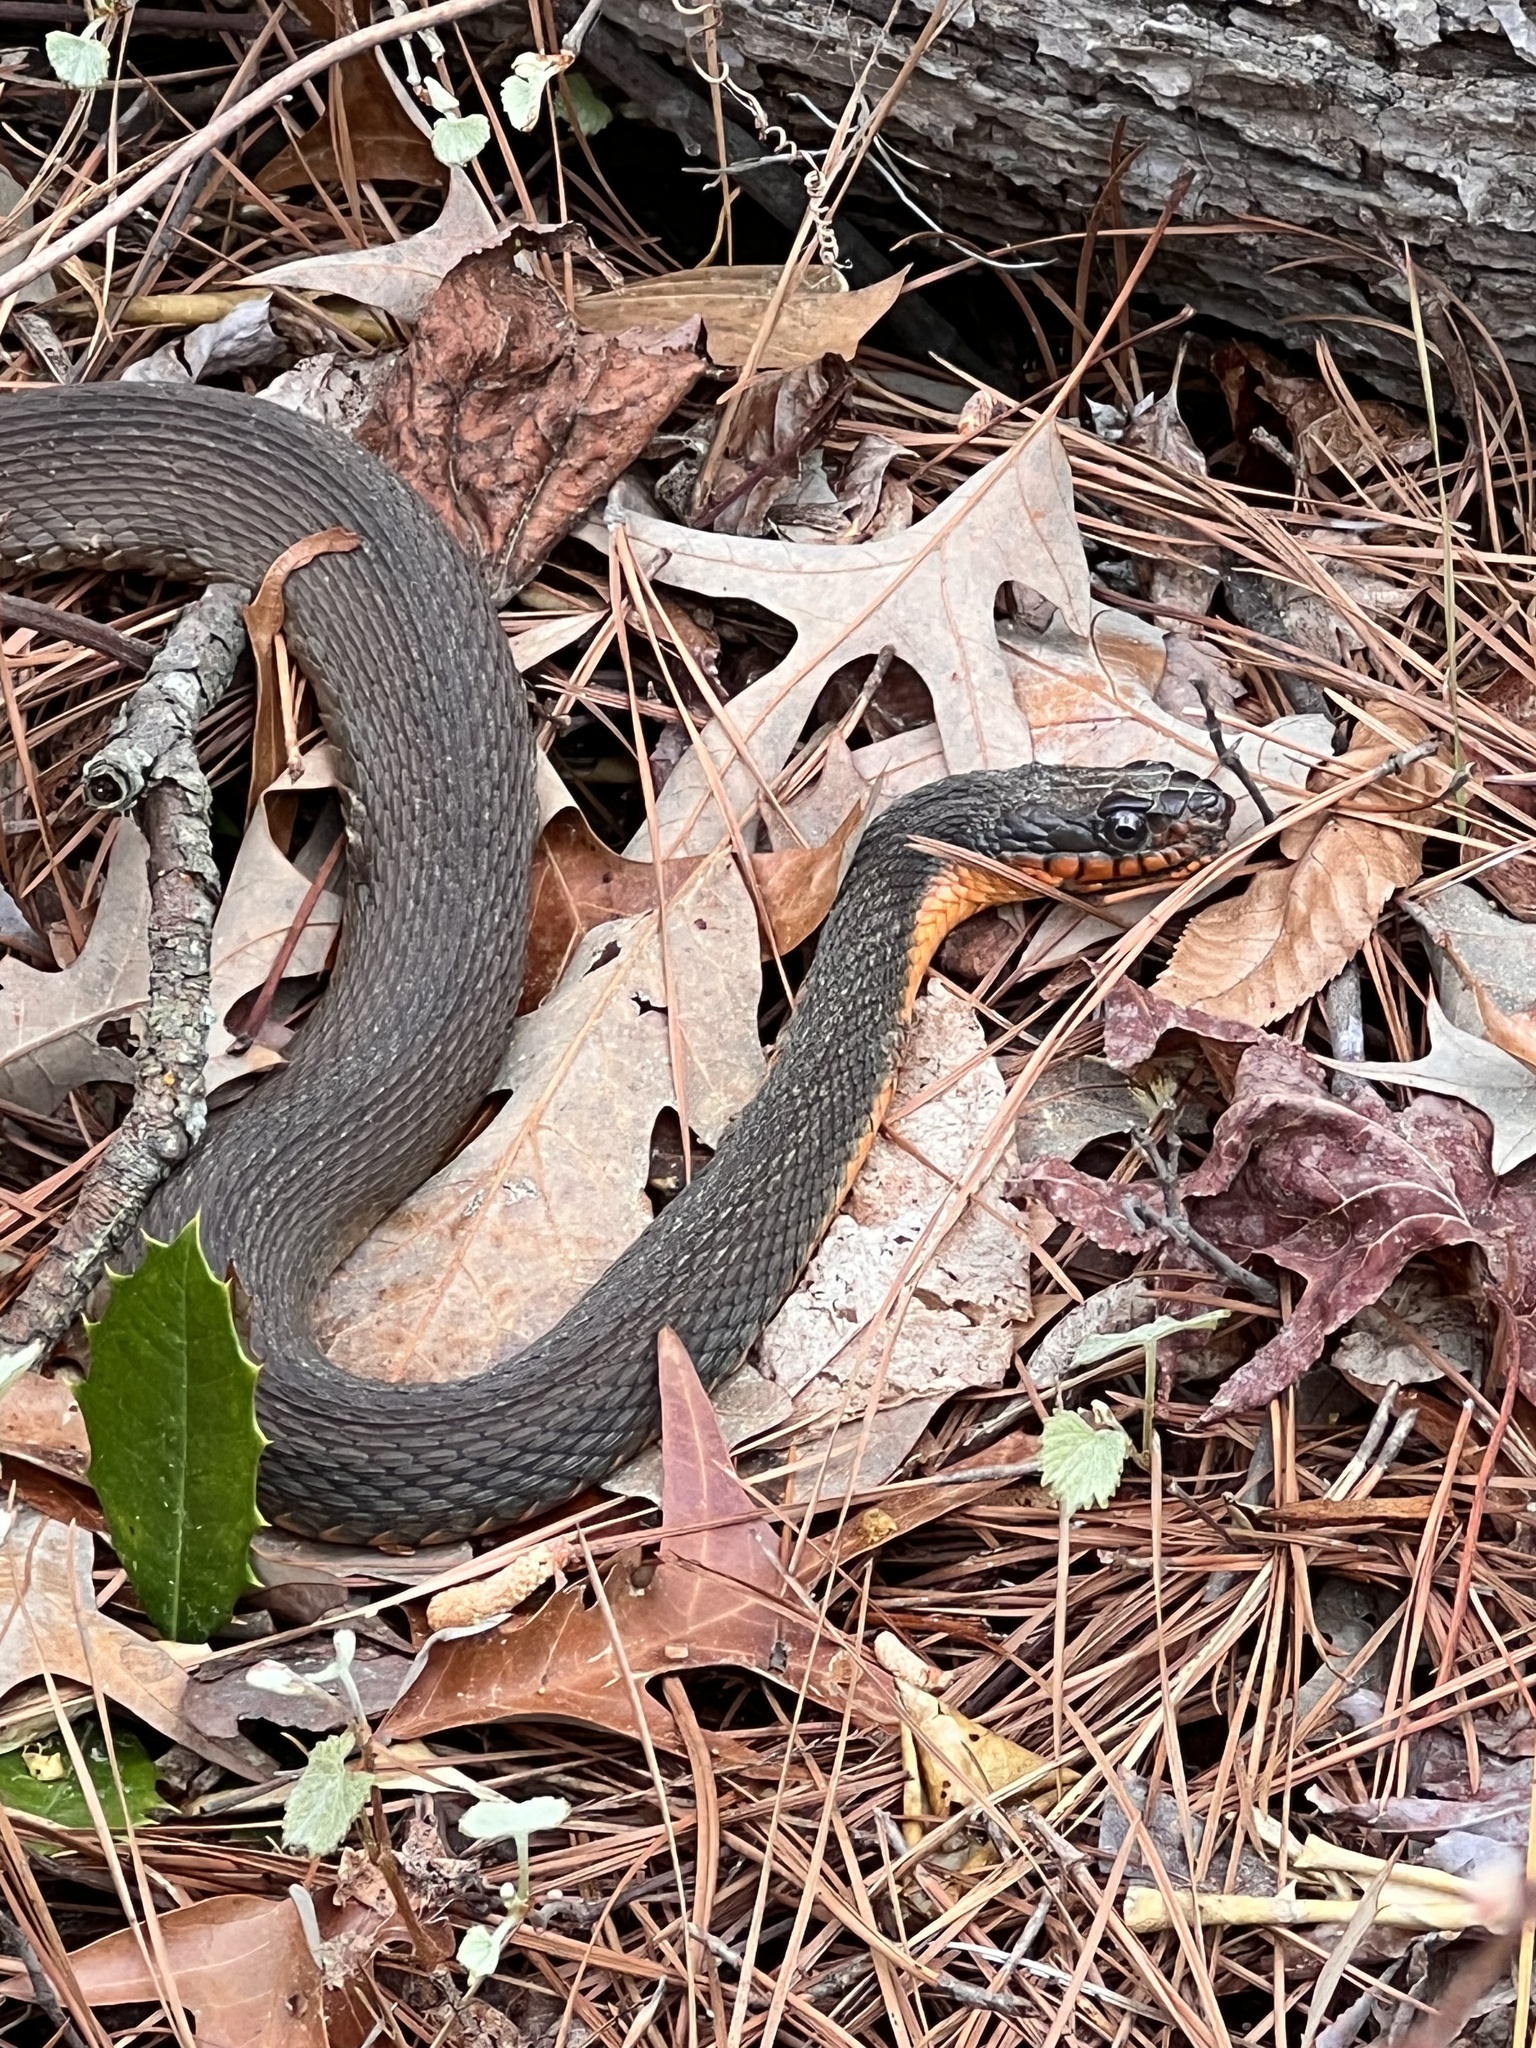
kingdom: Animalia
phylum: Chordata
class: Squamata
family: Colubridae
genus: Nerodia
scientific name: Nerodia erythrogaster
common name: Plainbelly water snake
